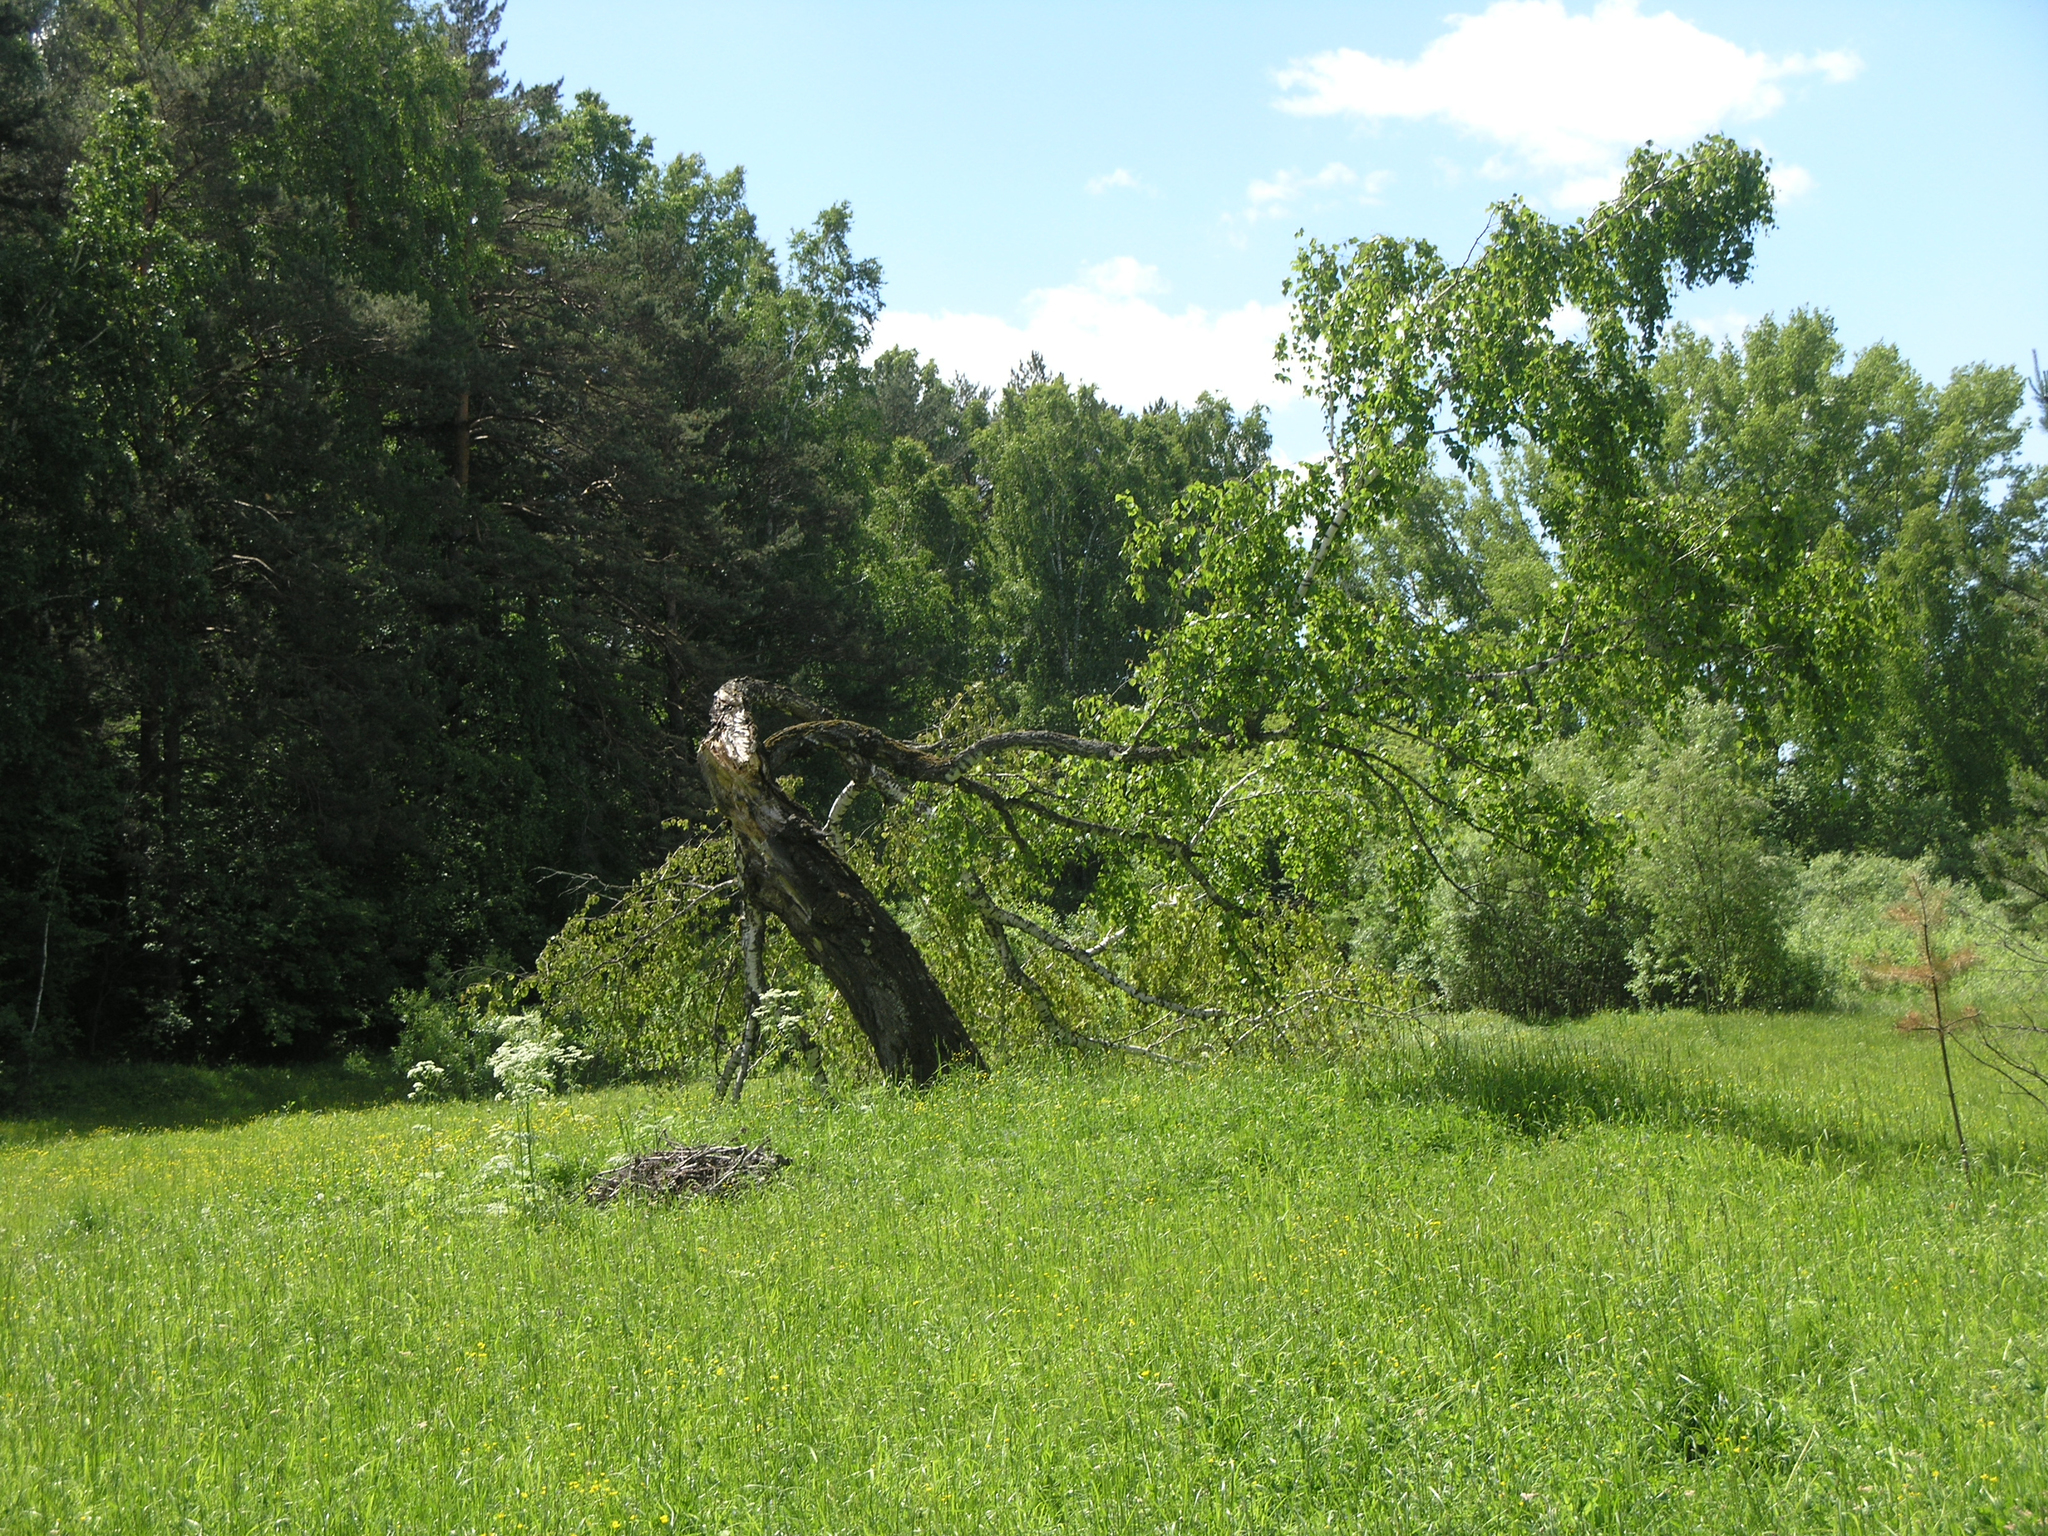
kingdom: Plantae
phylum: Tracheophyta
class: Magnoliopsida
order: Fagales
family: Betulaceae
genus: Betula
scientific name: Betula pendula
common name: Silver birch
